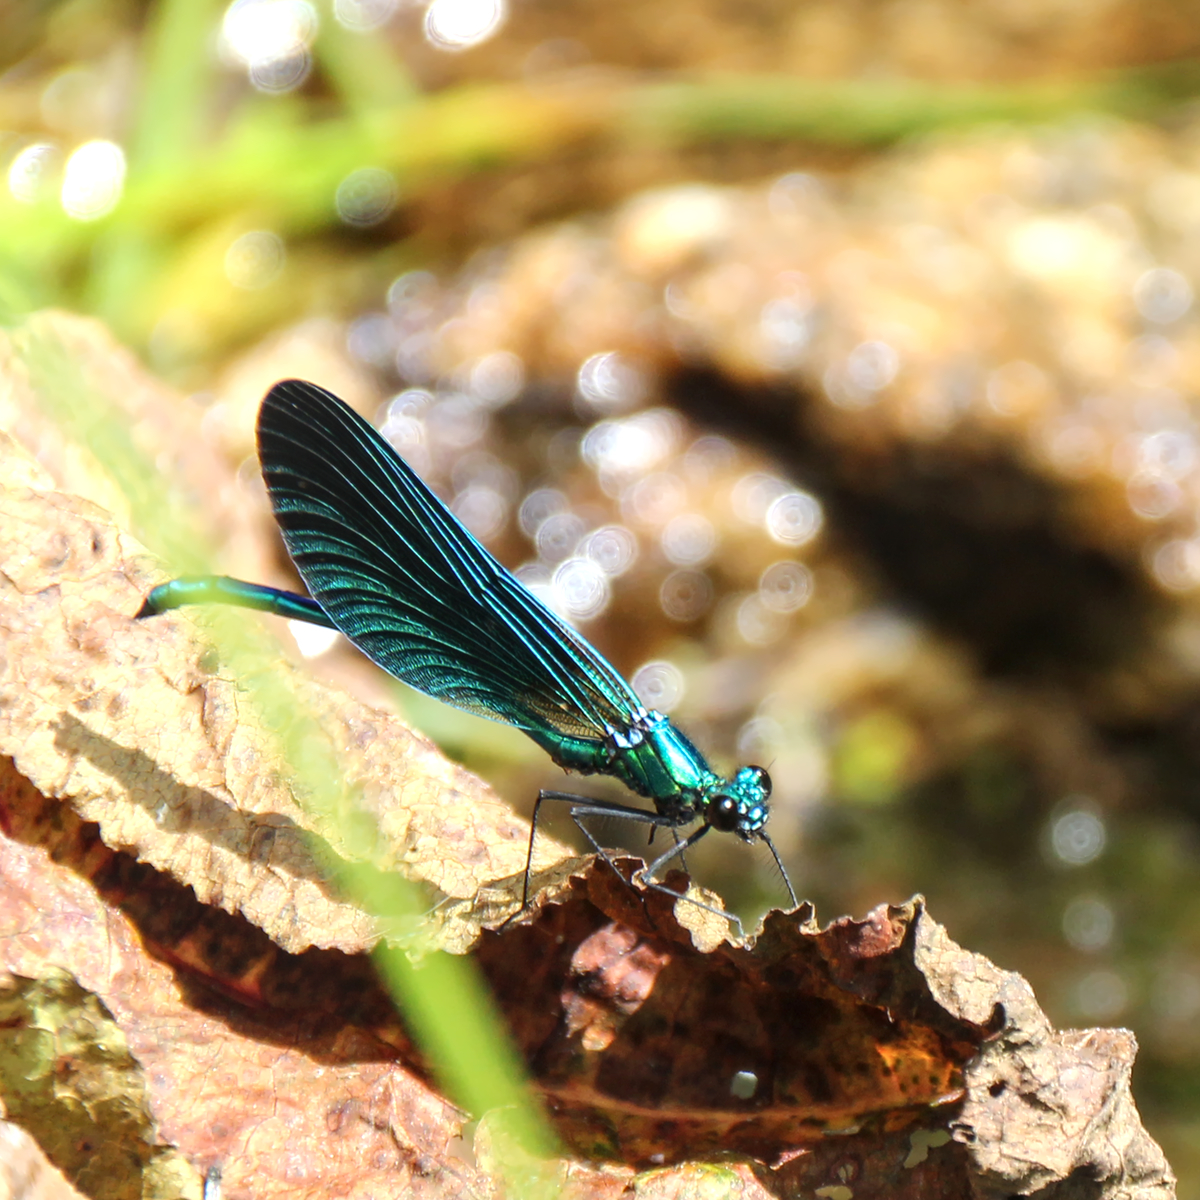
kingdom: Animalia
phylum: Arthropoda
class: Insecta
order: Odonata
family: Calopterygidae
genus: Calopteryx
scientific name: Calopteryx virgo
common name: Beautiful demoiselle
